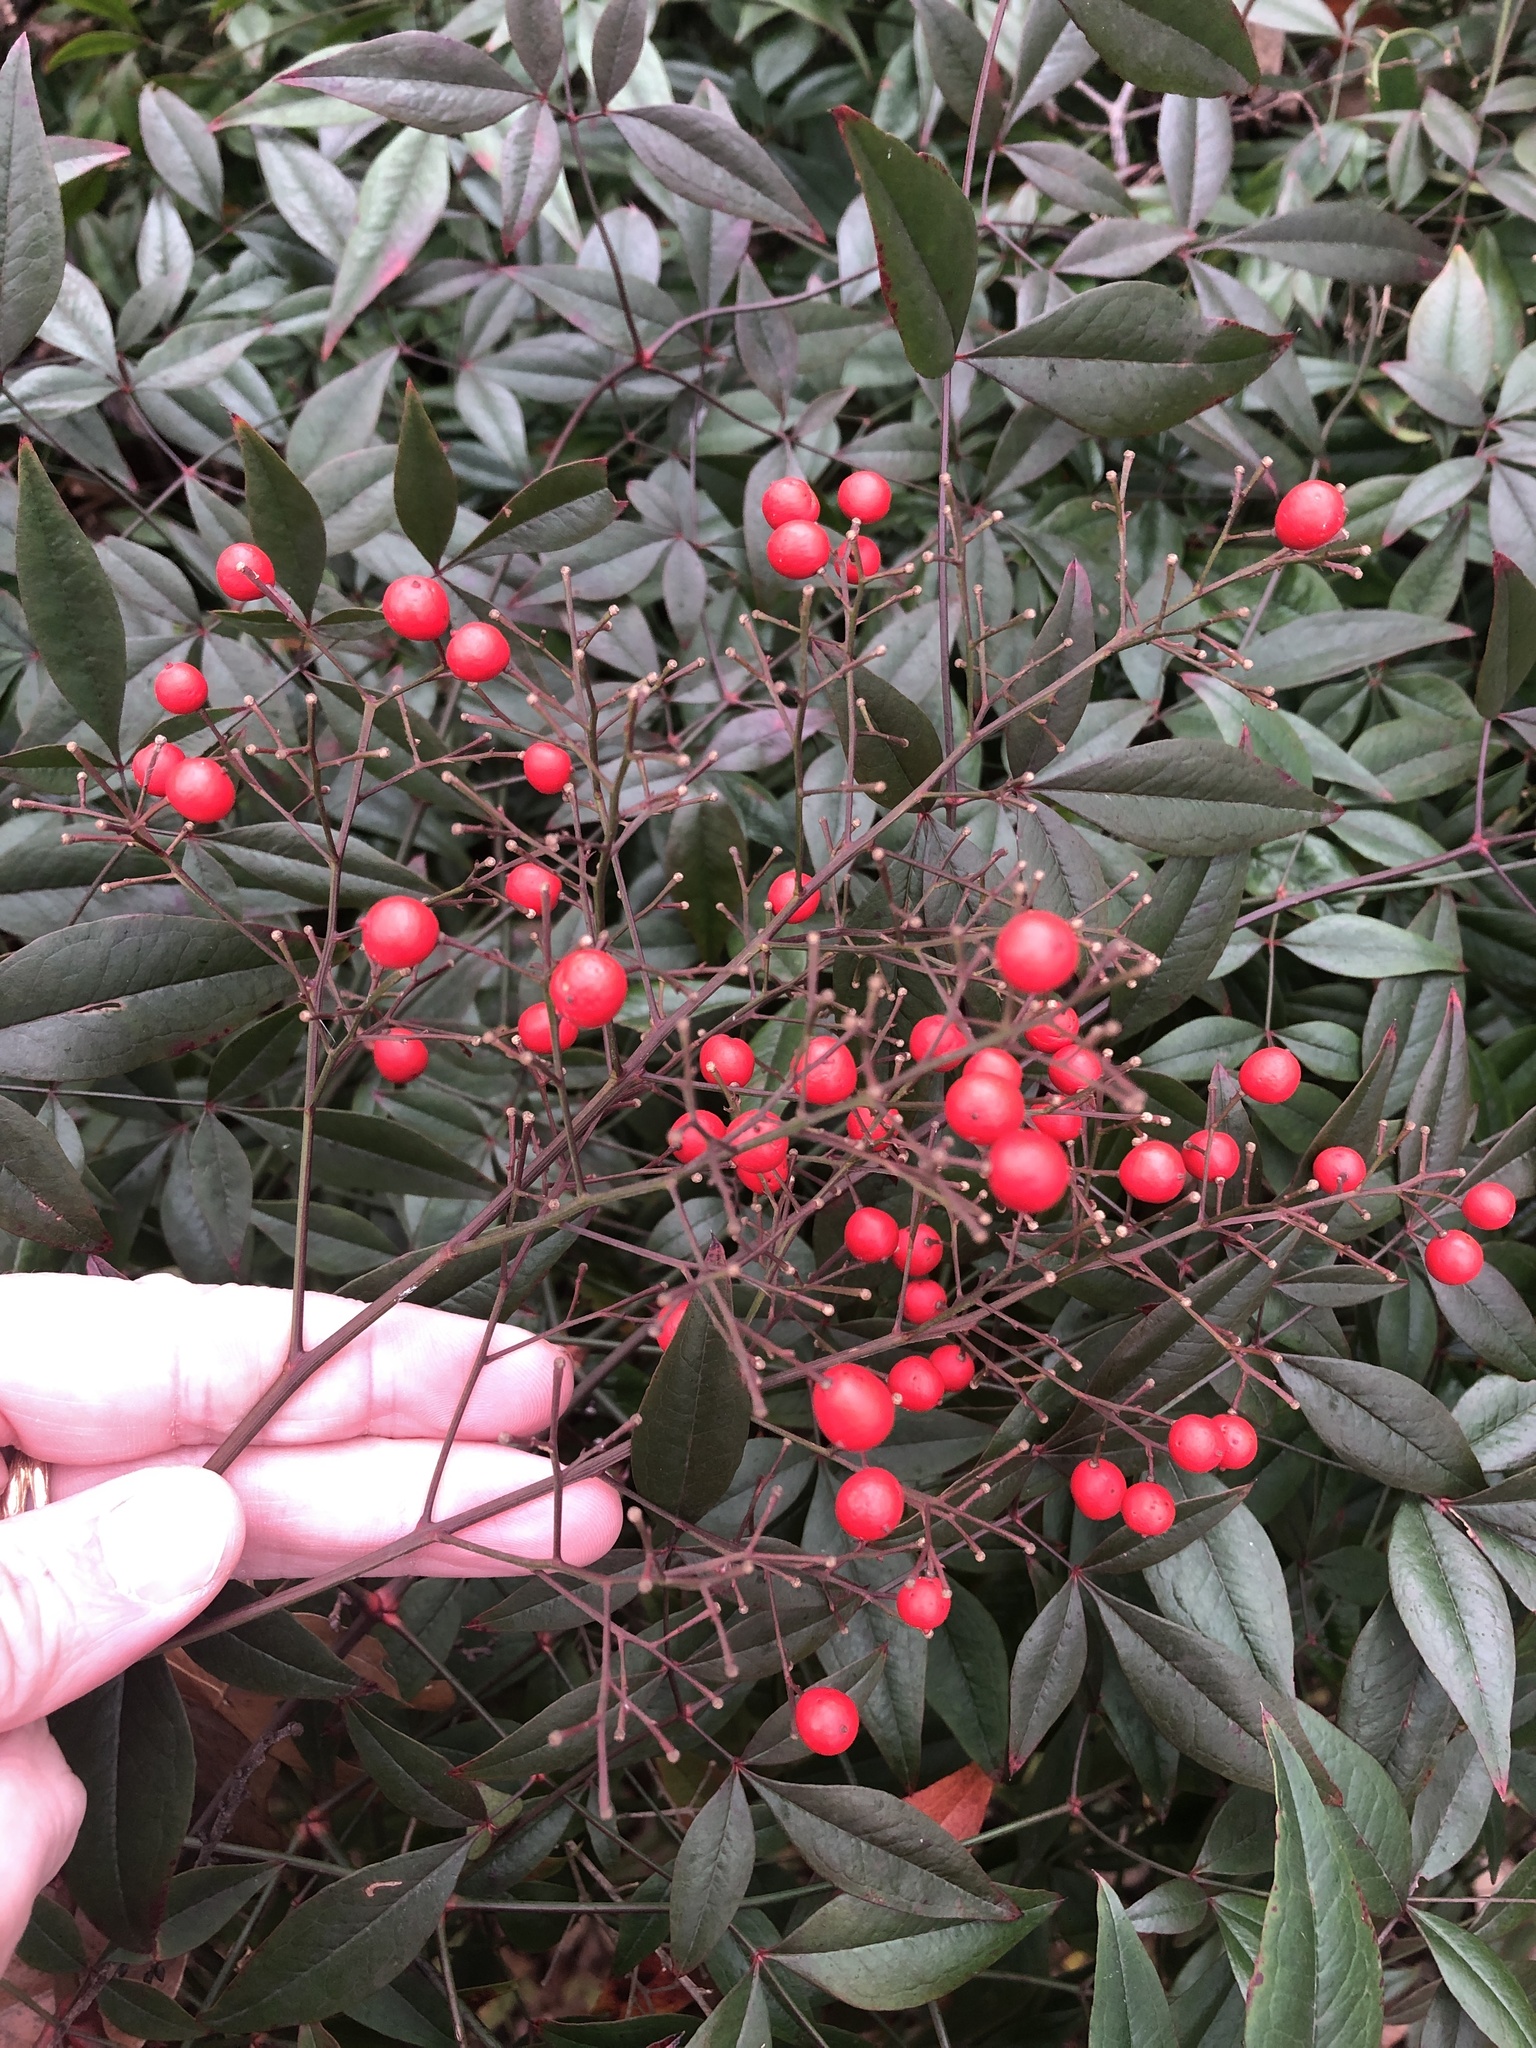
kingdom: Plantae
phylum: Tracheophyta
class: Magnoliopsida
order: Ranunculales
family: Berberidaceae
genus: Nandina
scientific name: Nandina domestica
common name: Sacred bamboo
